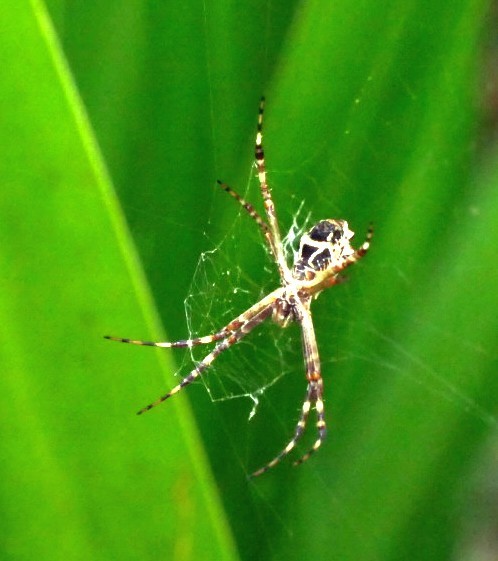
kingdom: Animalia
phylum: Arthropoda
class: Arachnida
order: Araneae
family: Araneidae
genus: Argiope
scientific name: Argiope argentata
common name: Orb weavers
